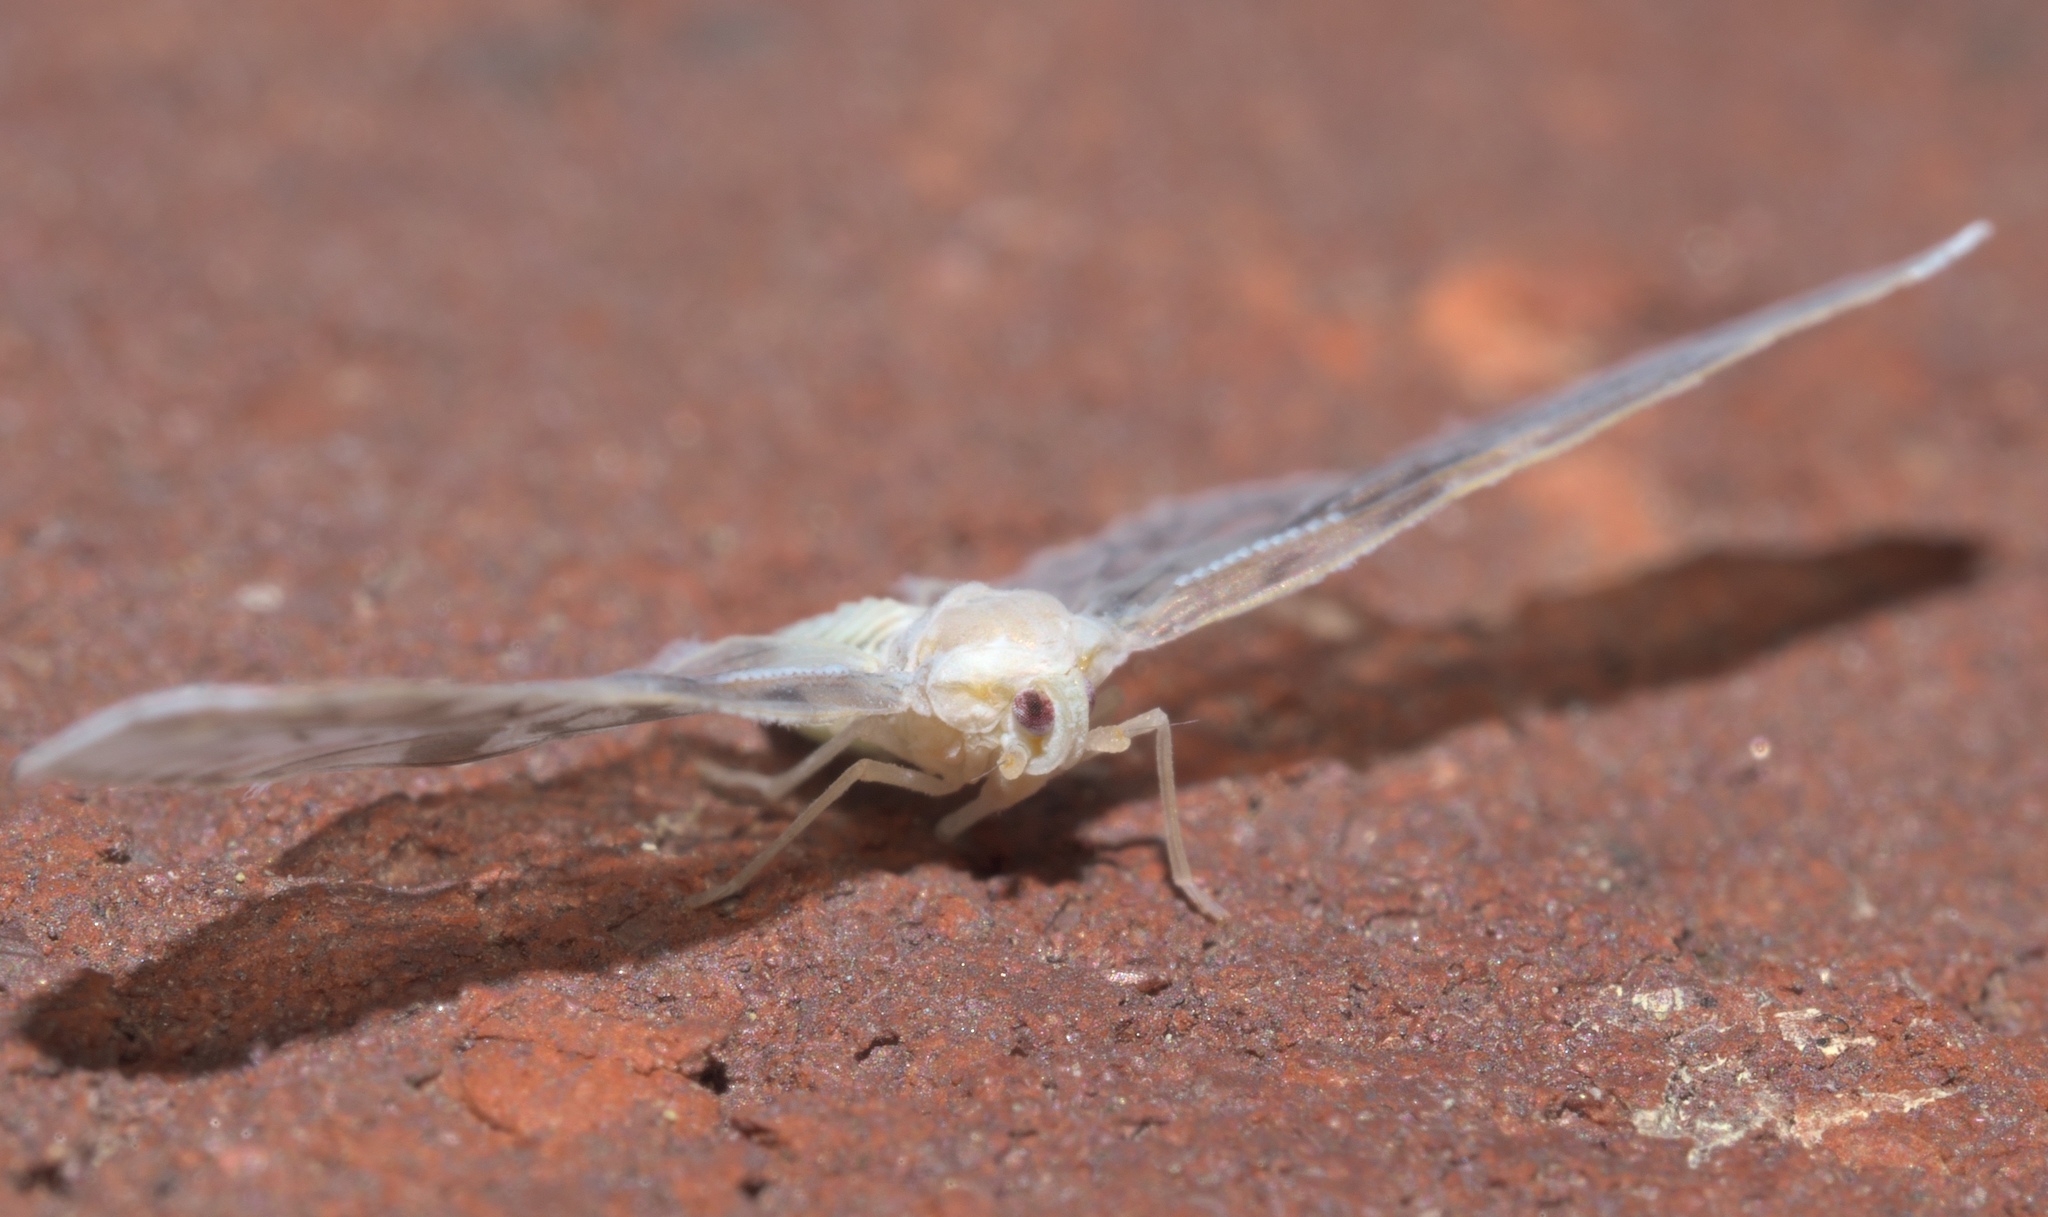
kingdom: Animalia
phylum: Arthropoda
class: Insecta
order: Hemiptera
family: Derbidae
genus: Paramysidia
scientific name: Paramysidia mississippiensis
